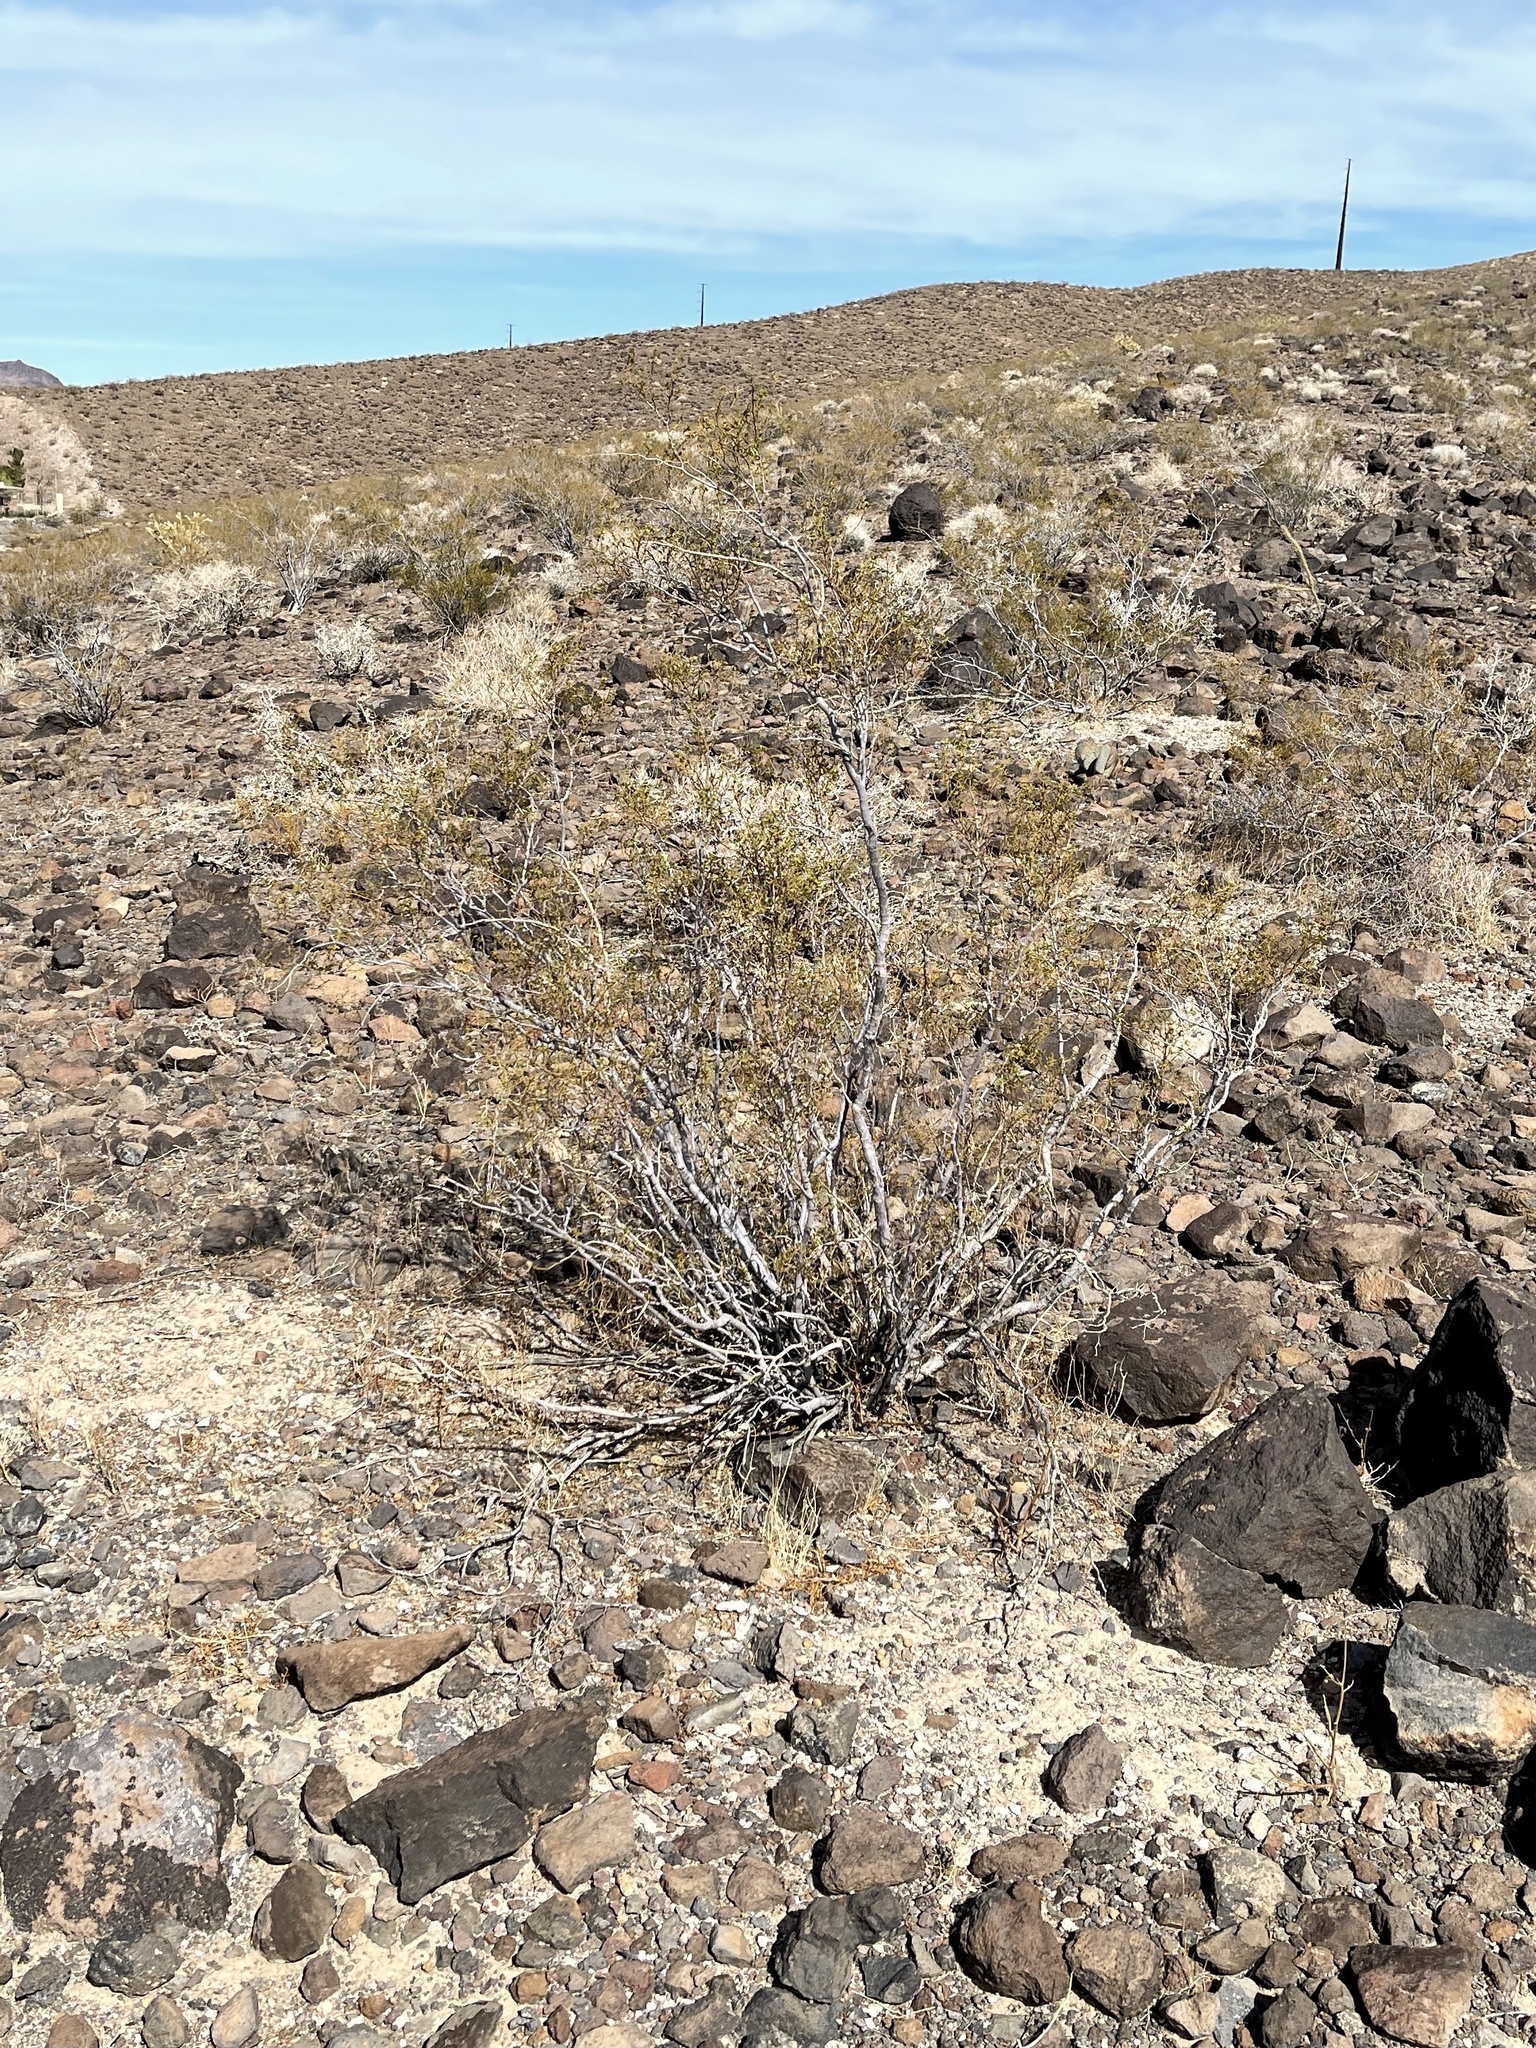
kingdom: Plantae
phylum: Tracheophyta
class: Magnoliopsida
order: Zygophyllales
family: Zygophyllaceae
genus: Larrea
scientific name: Larrea tridentata
